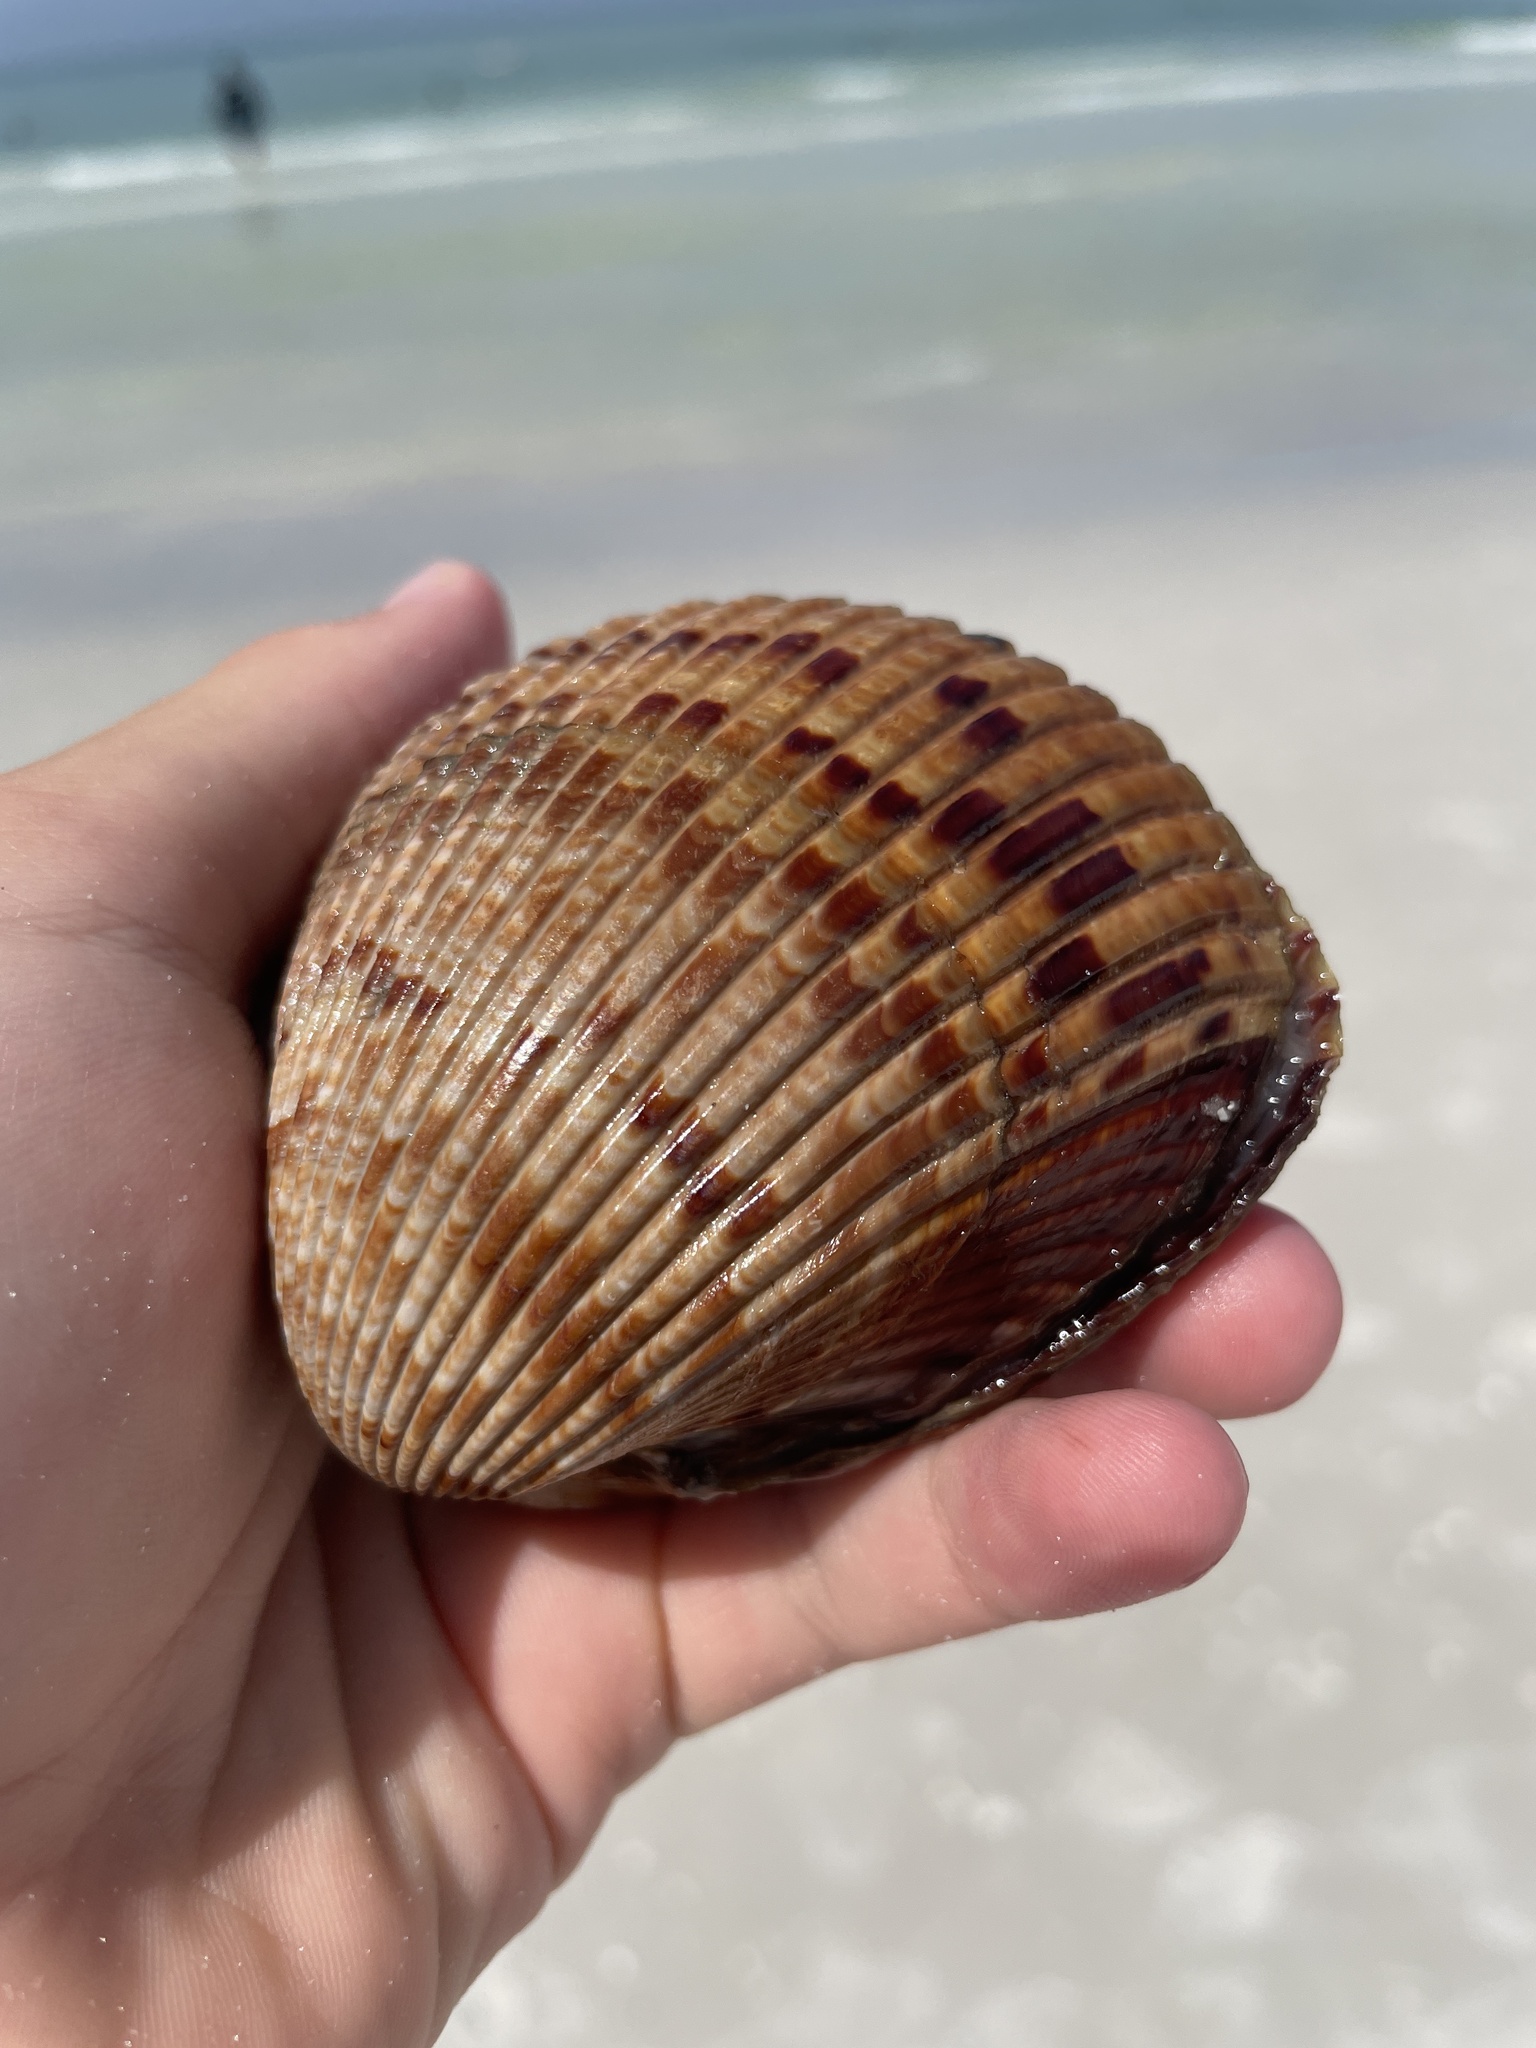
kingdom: Animalia
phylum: Mollusca
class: Bivalvia
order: Cardiida
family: Cardiidae
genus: Dinocardium
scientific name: Dinocardium robustum
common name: Atlantic giant cockle
